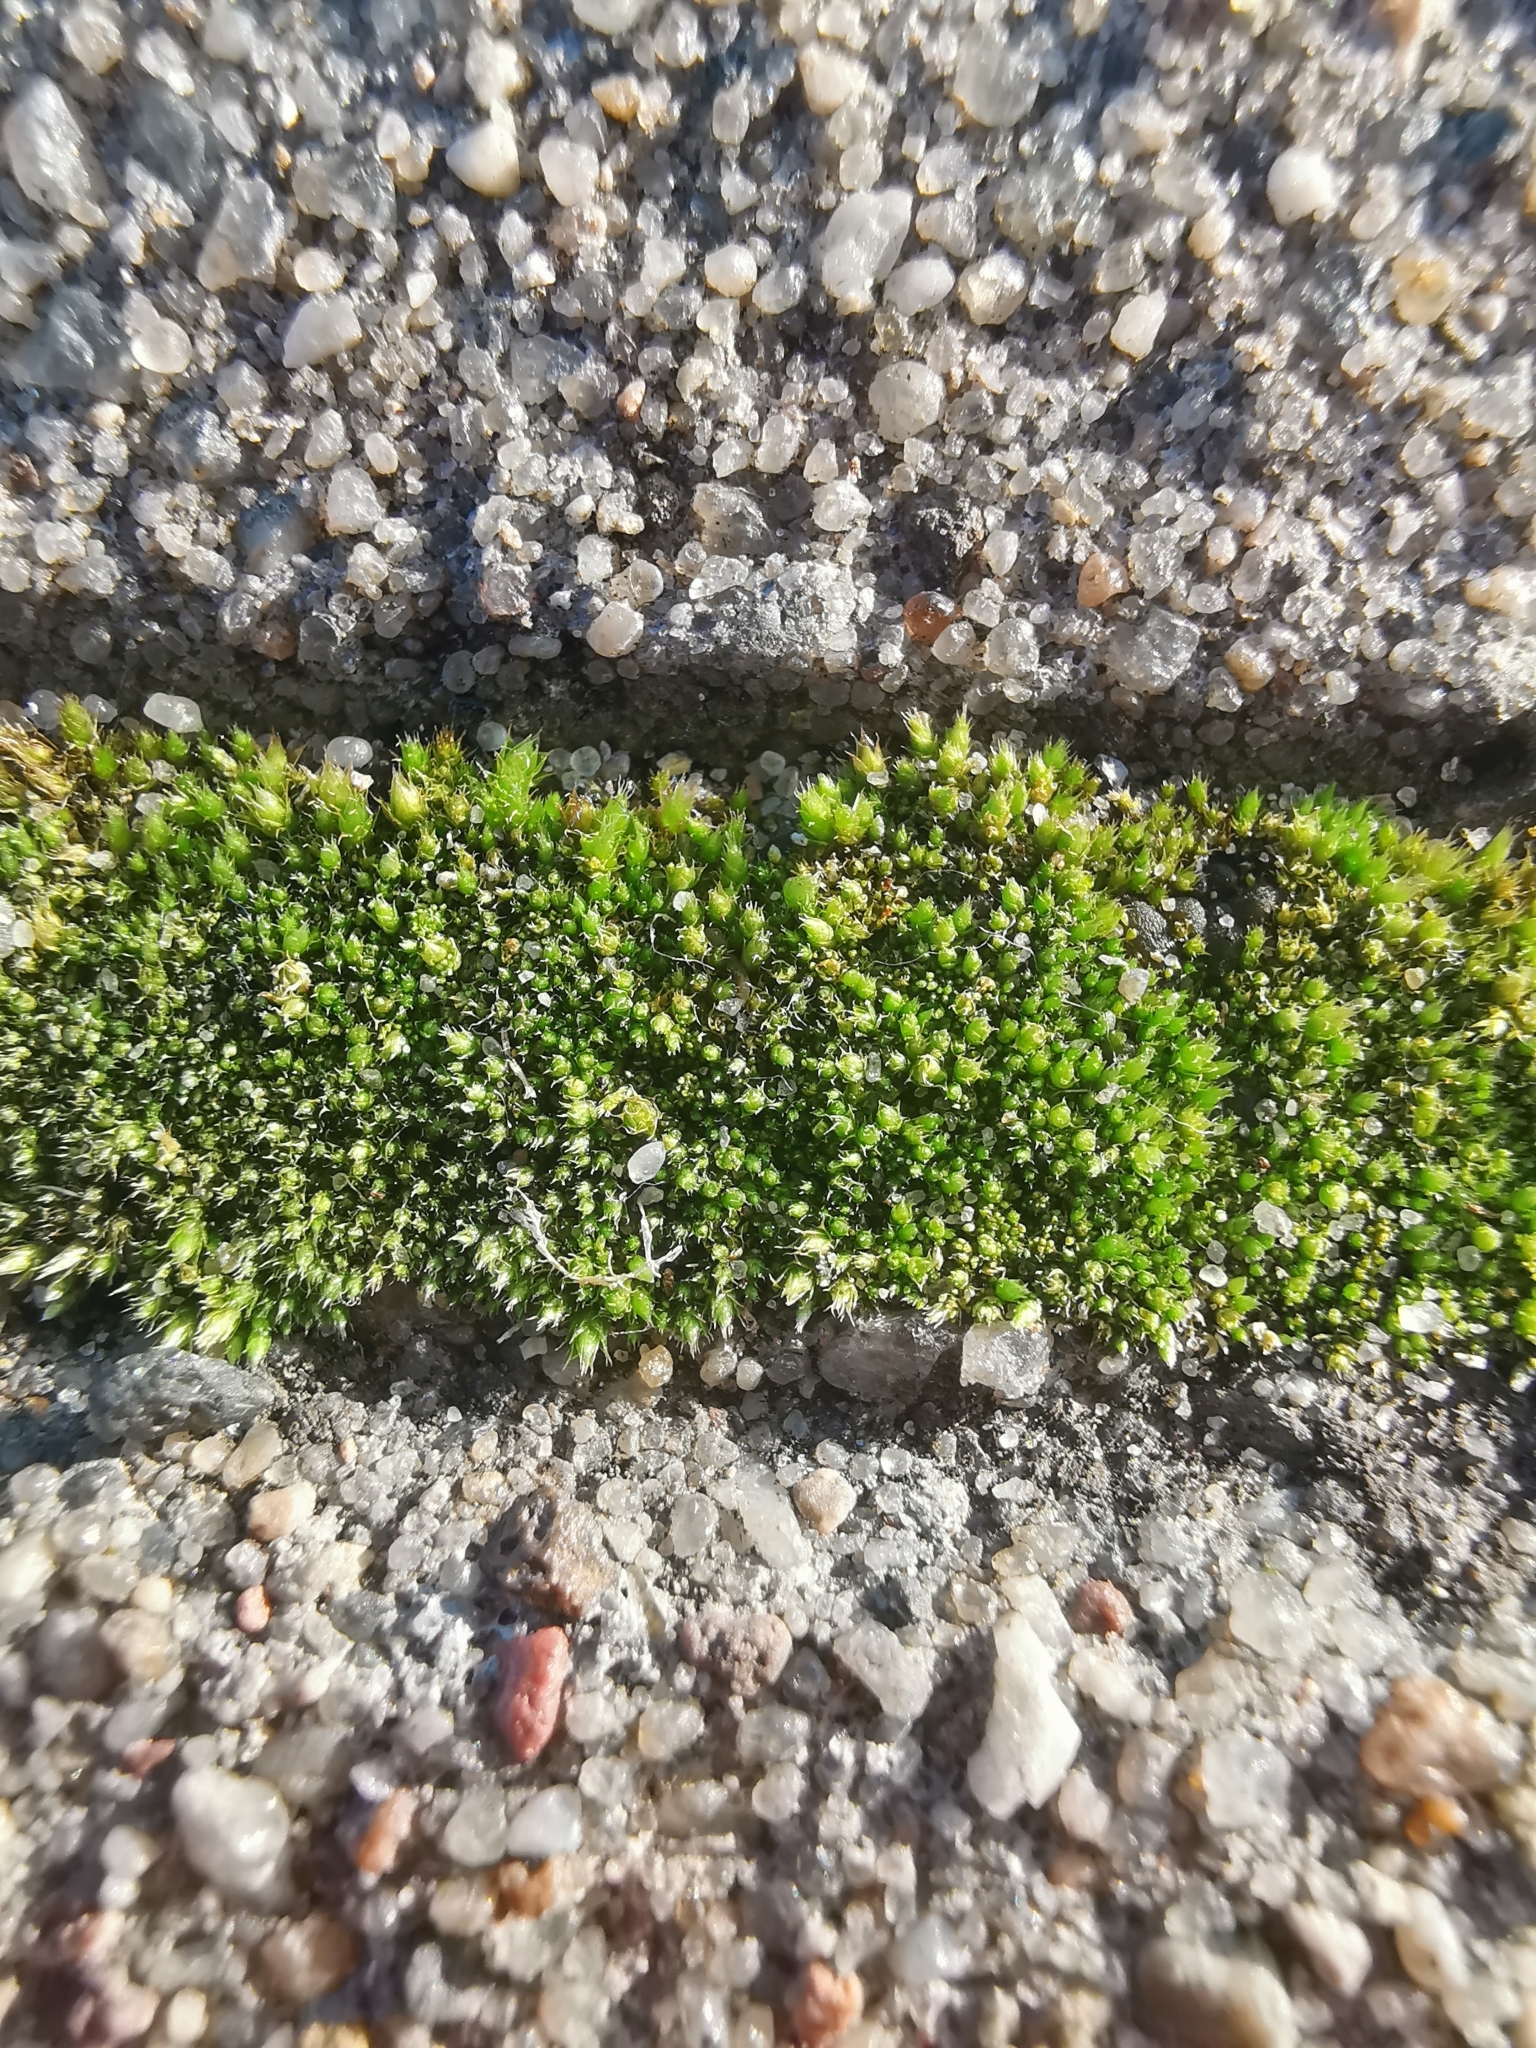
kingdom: Plantae
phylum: Bryophyta
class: Bryopsida
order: Bryales
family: Bryaceae
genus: Bryum
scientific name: Bryum argenteum
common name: Silver-moss
